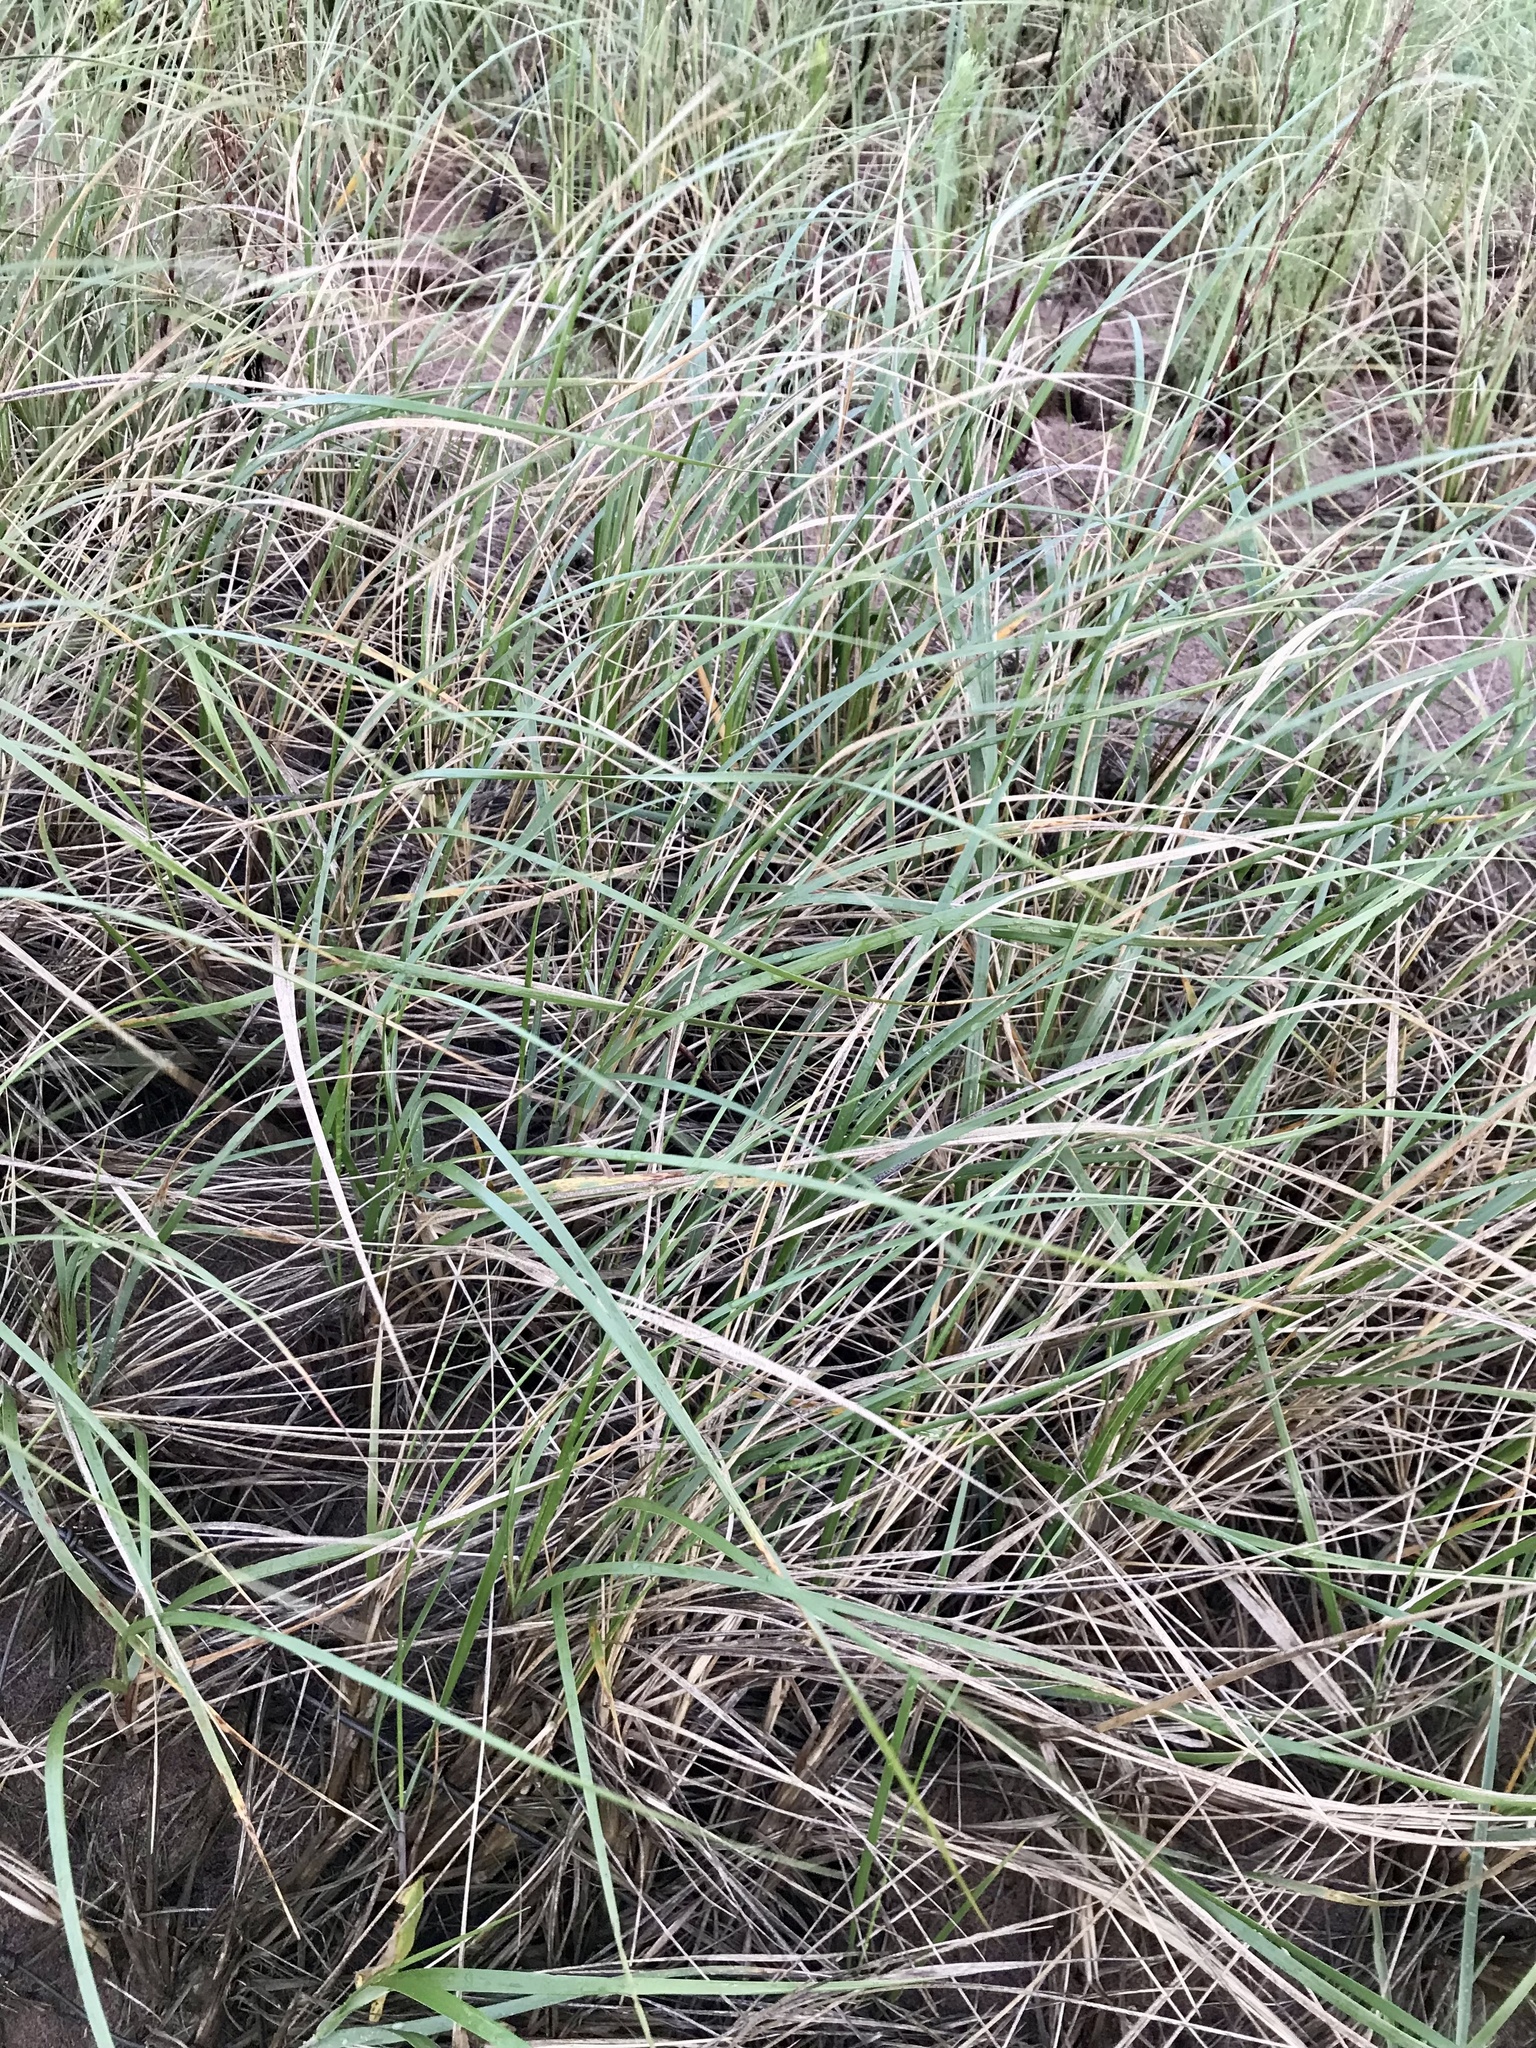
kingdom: Plantae
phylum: Tracheophyta
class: Liliopsida
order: Poales
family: Poaceae
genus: Calamagrostis
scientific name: Calamagrostis breviligulata
